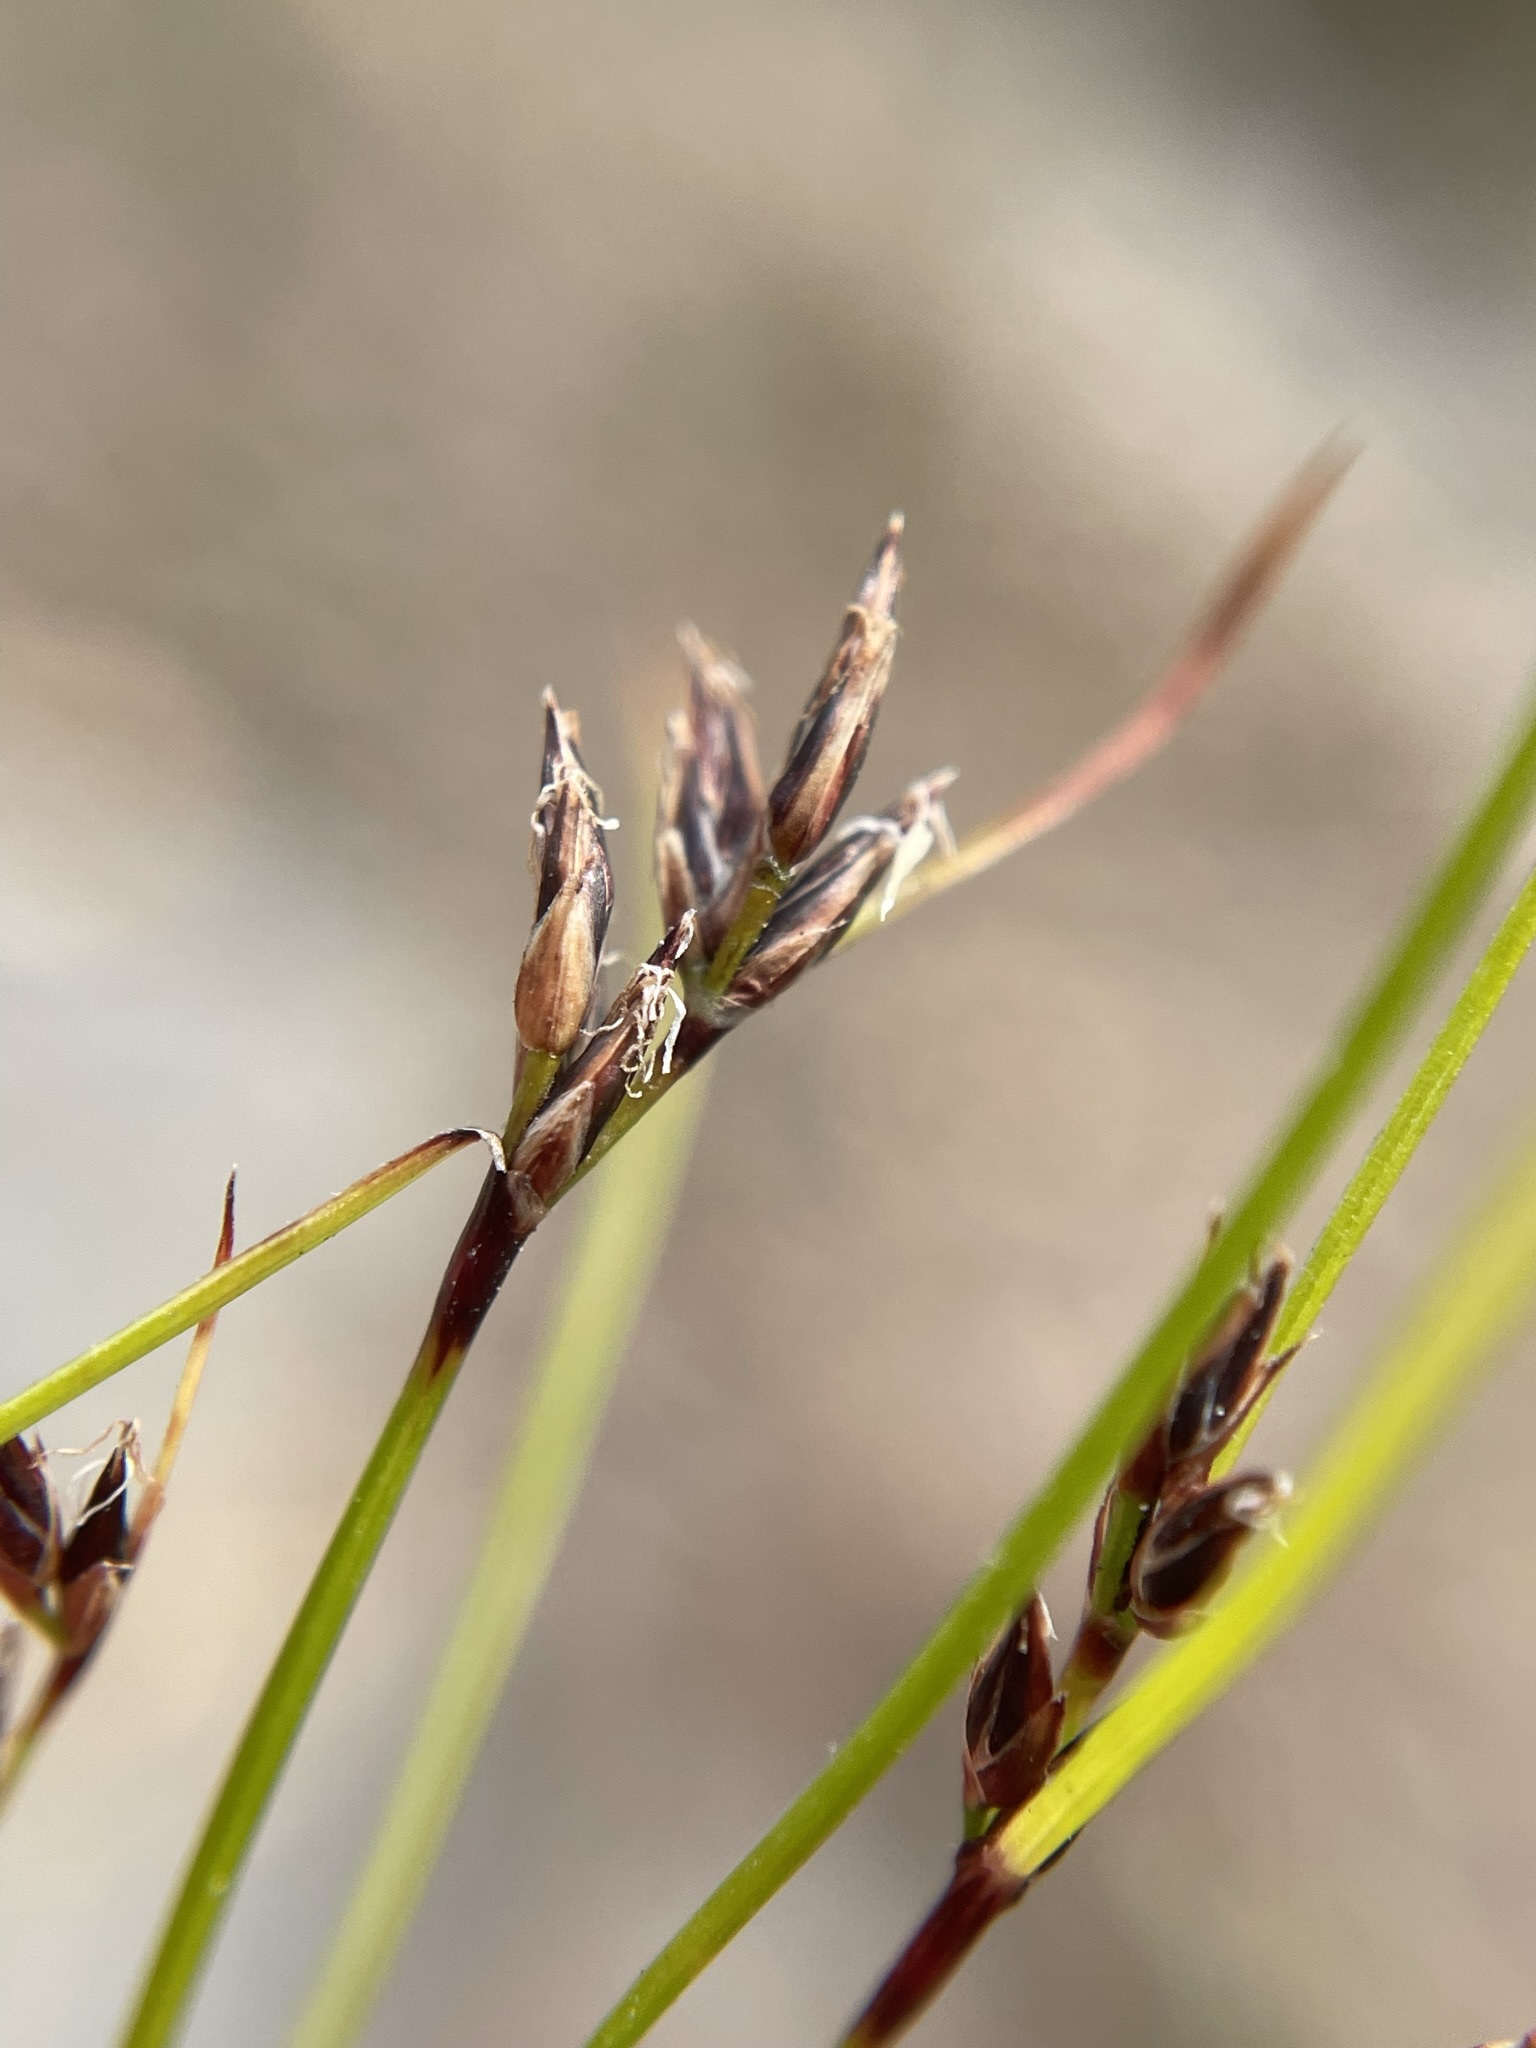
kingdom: Plantae
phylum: Tracheophyta
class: Liliopsida
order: Poales
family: Cyperaceae
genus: Schoenus
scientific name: Schoenus apogon
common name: Smooth bogrush
